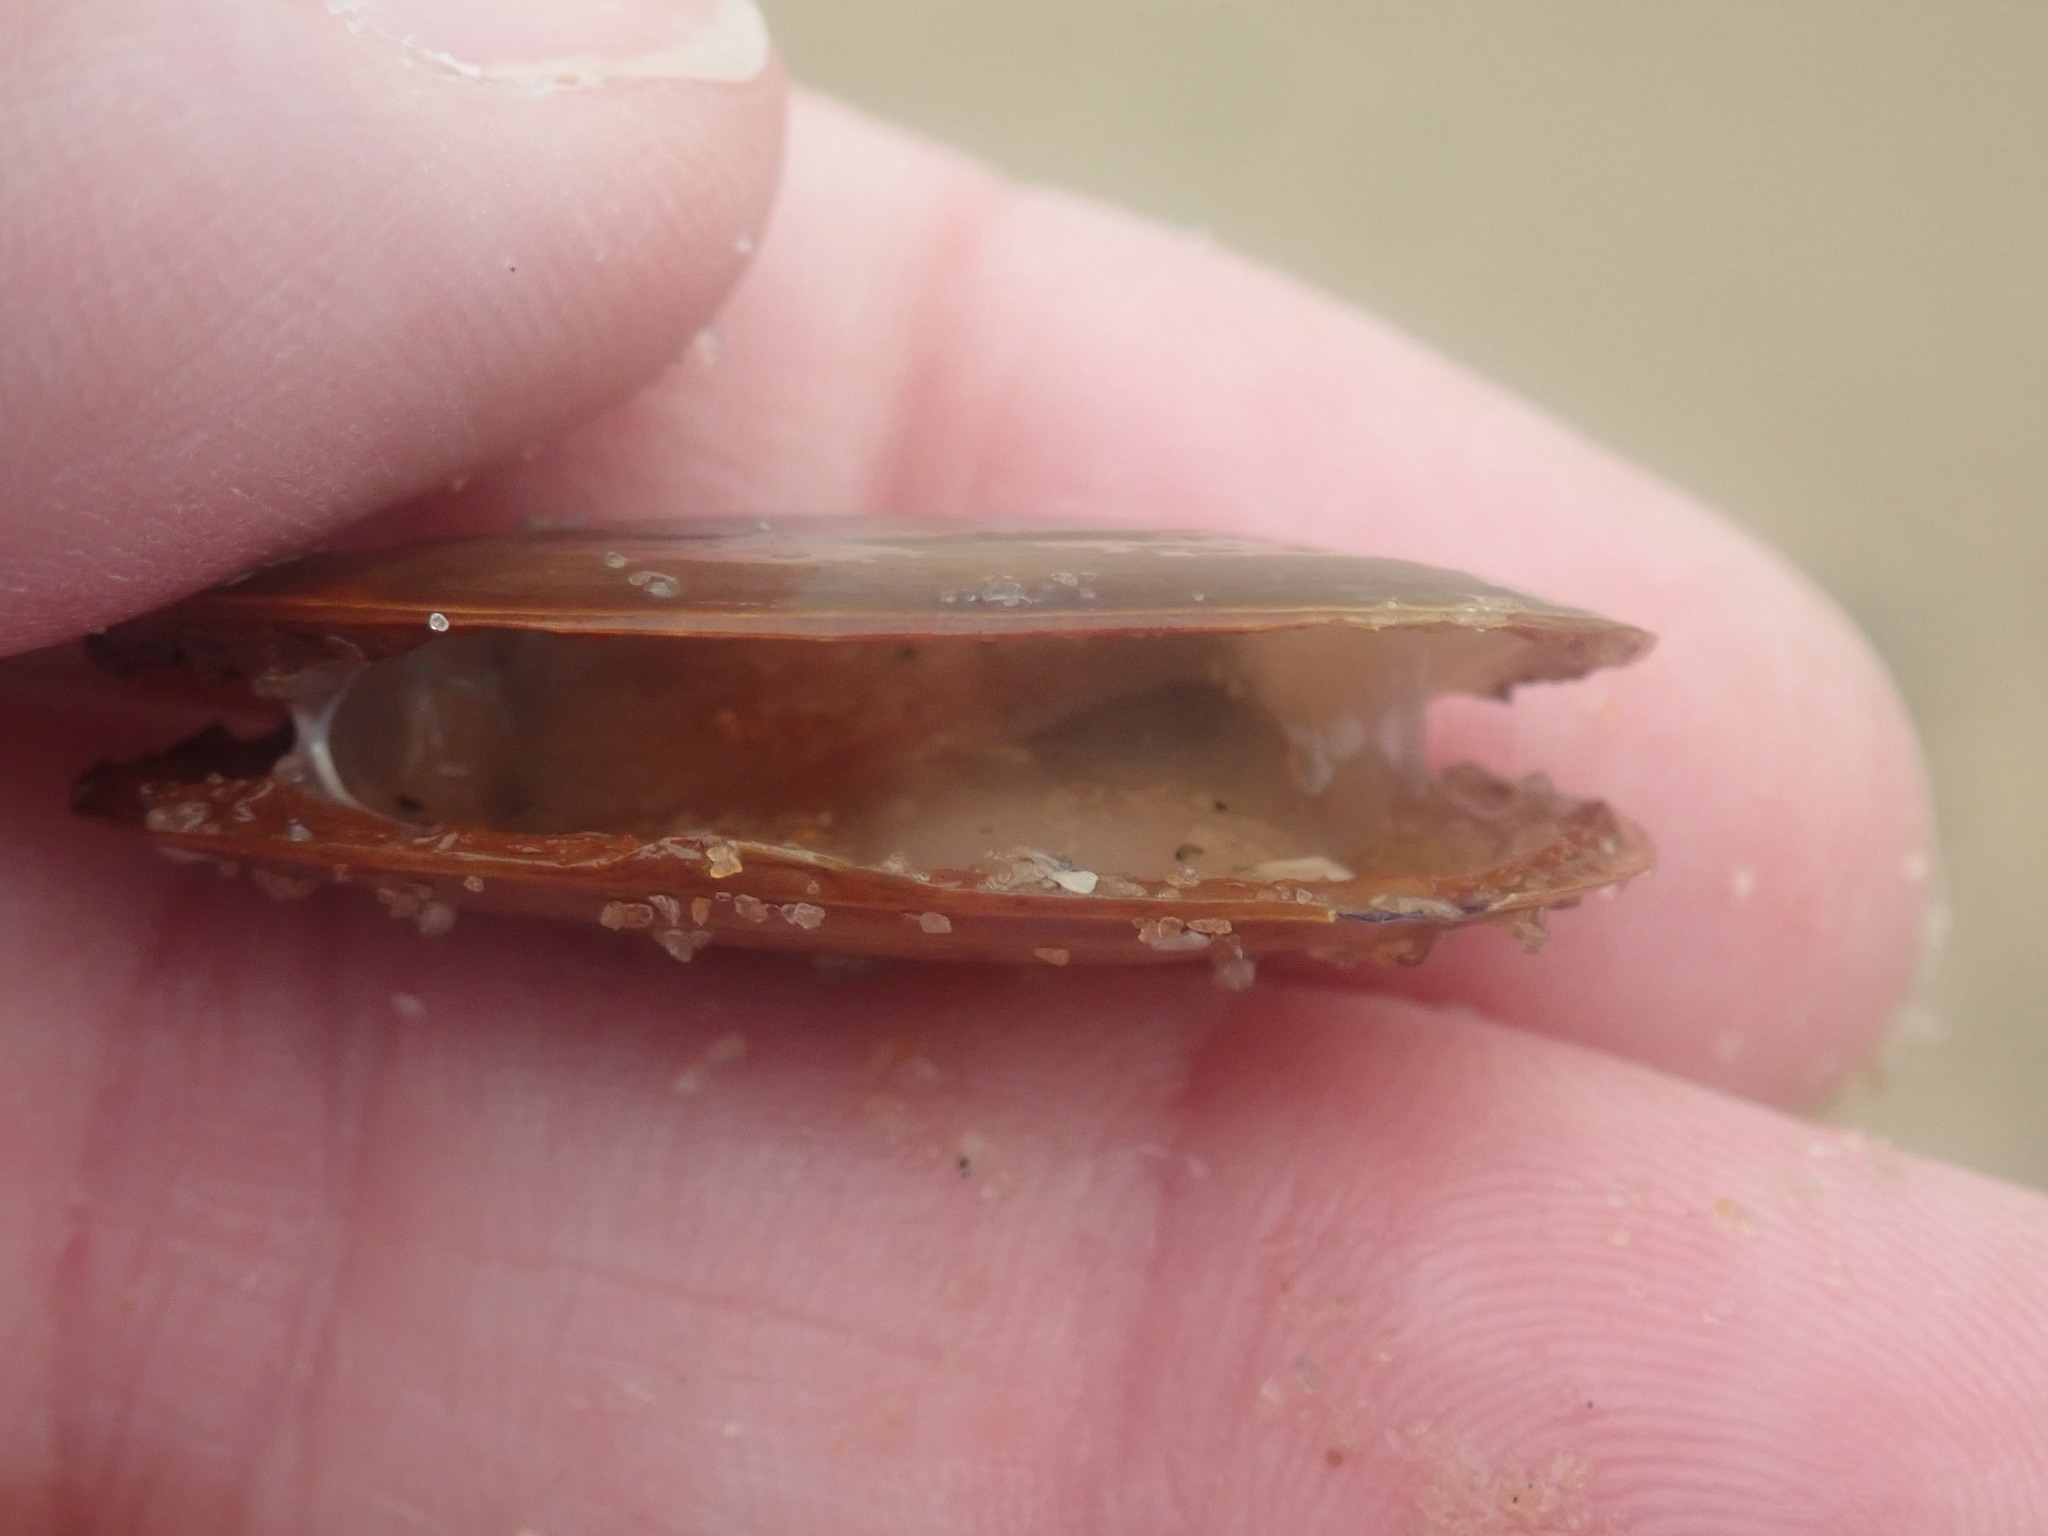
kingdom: Animalia
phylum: Mollusca
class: Bivalvia
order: Cardiida
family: Psammobiidae
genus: Hiatula
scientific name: Hiatula biradiata
